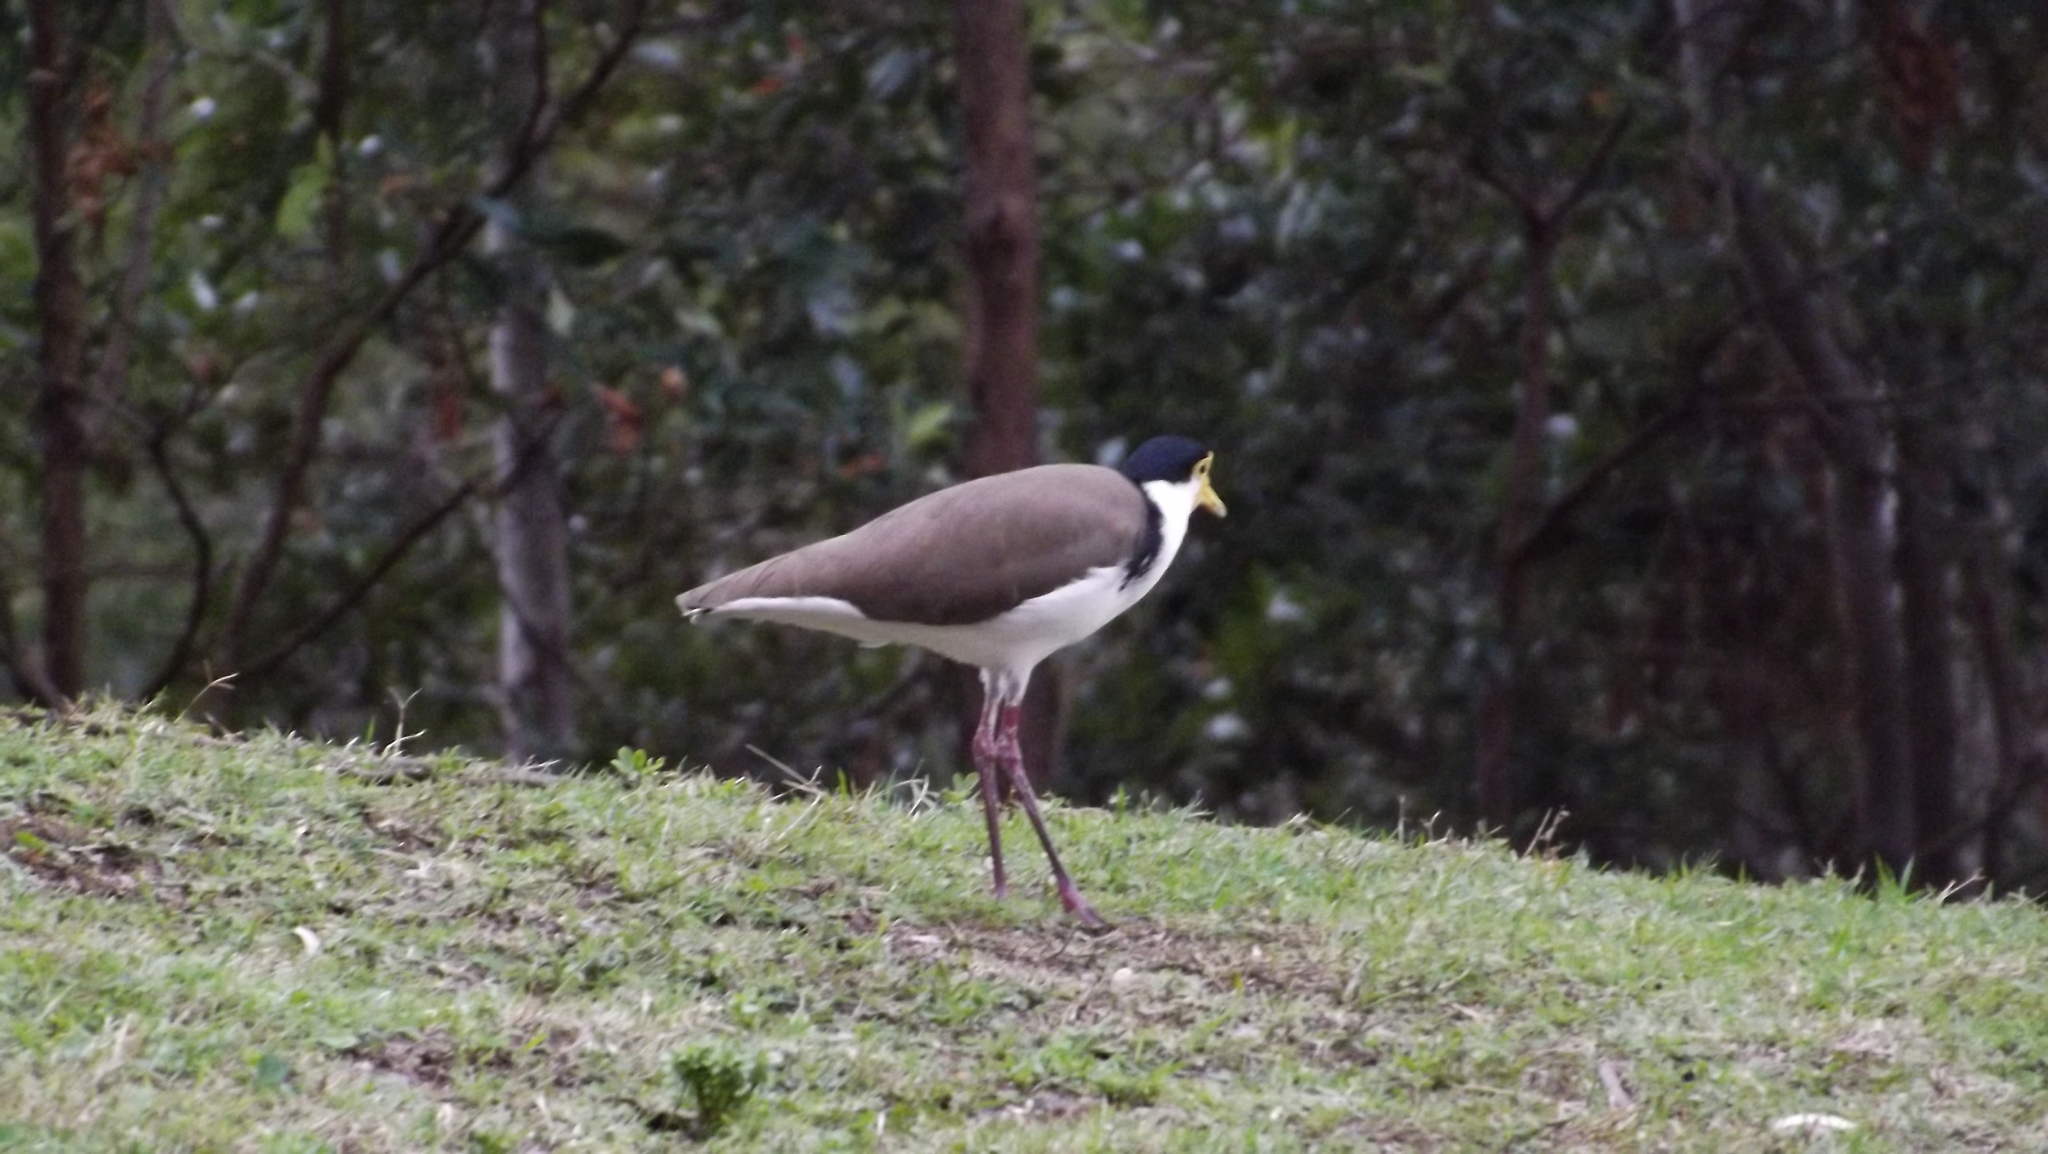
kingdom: Animalia
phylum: Chordata
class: Aves
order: Charadriiformes
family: Charadriidae
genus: Vanellus
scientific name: Vanellus miles
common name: Masked lapwing
